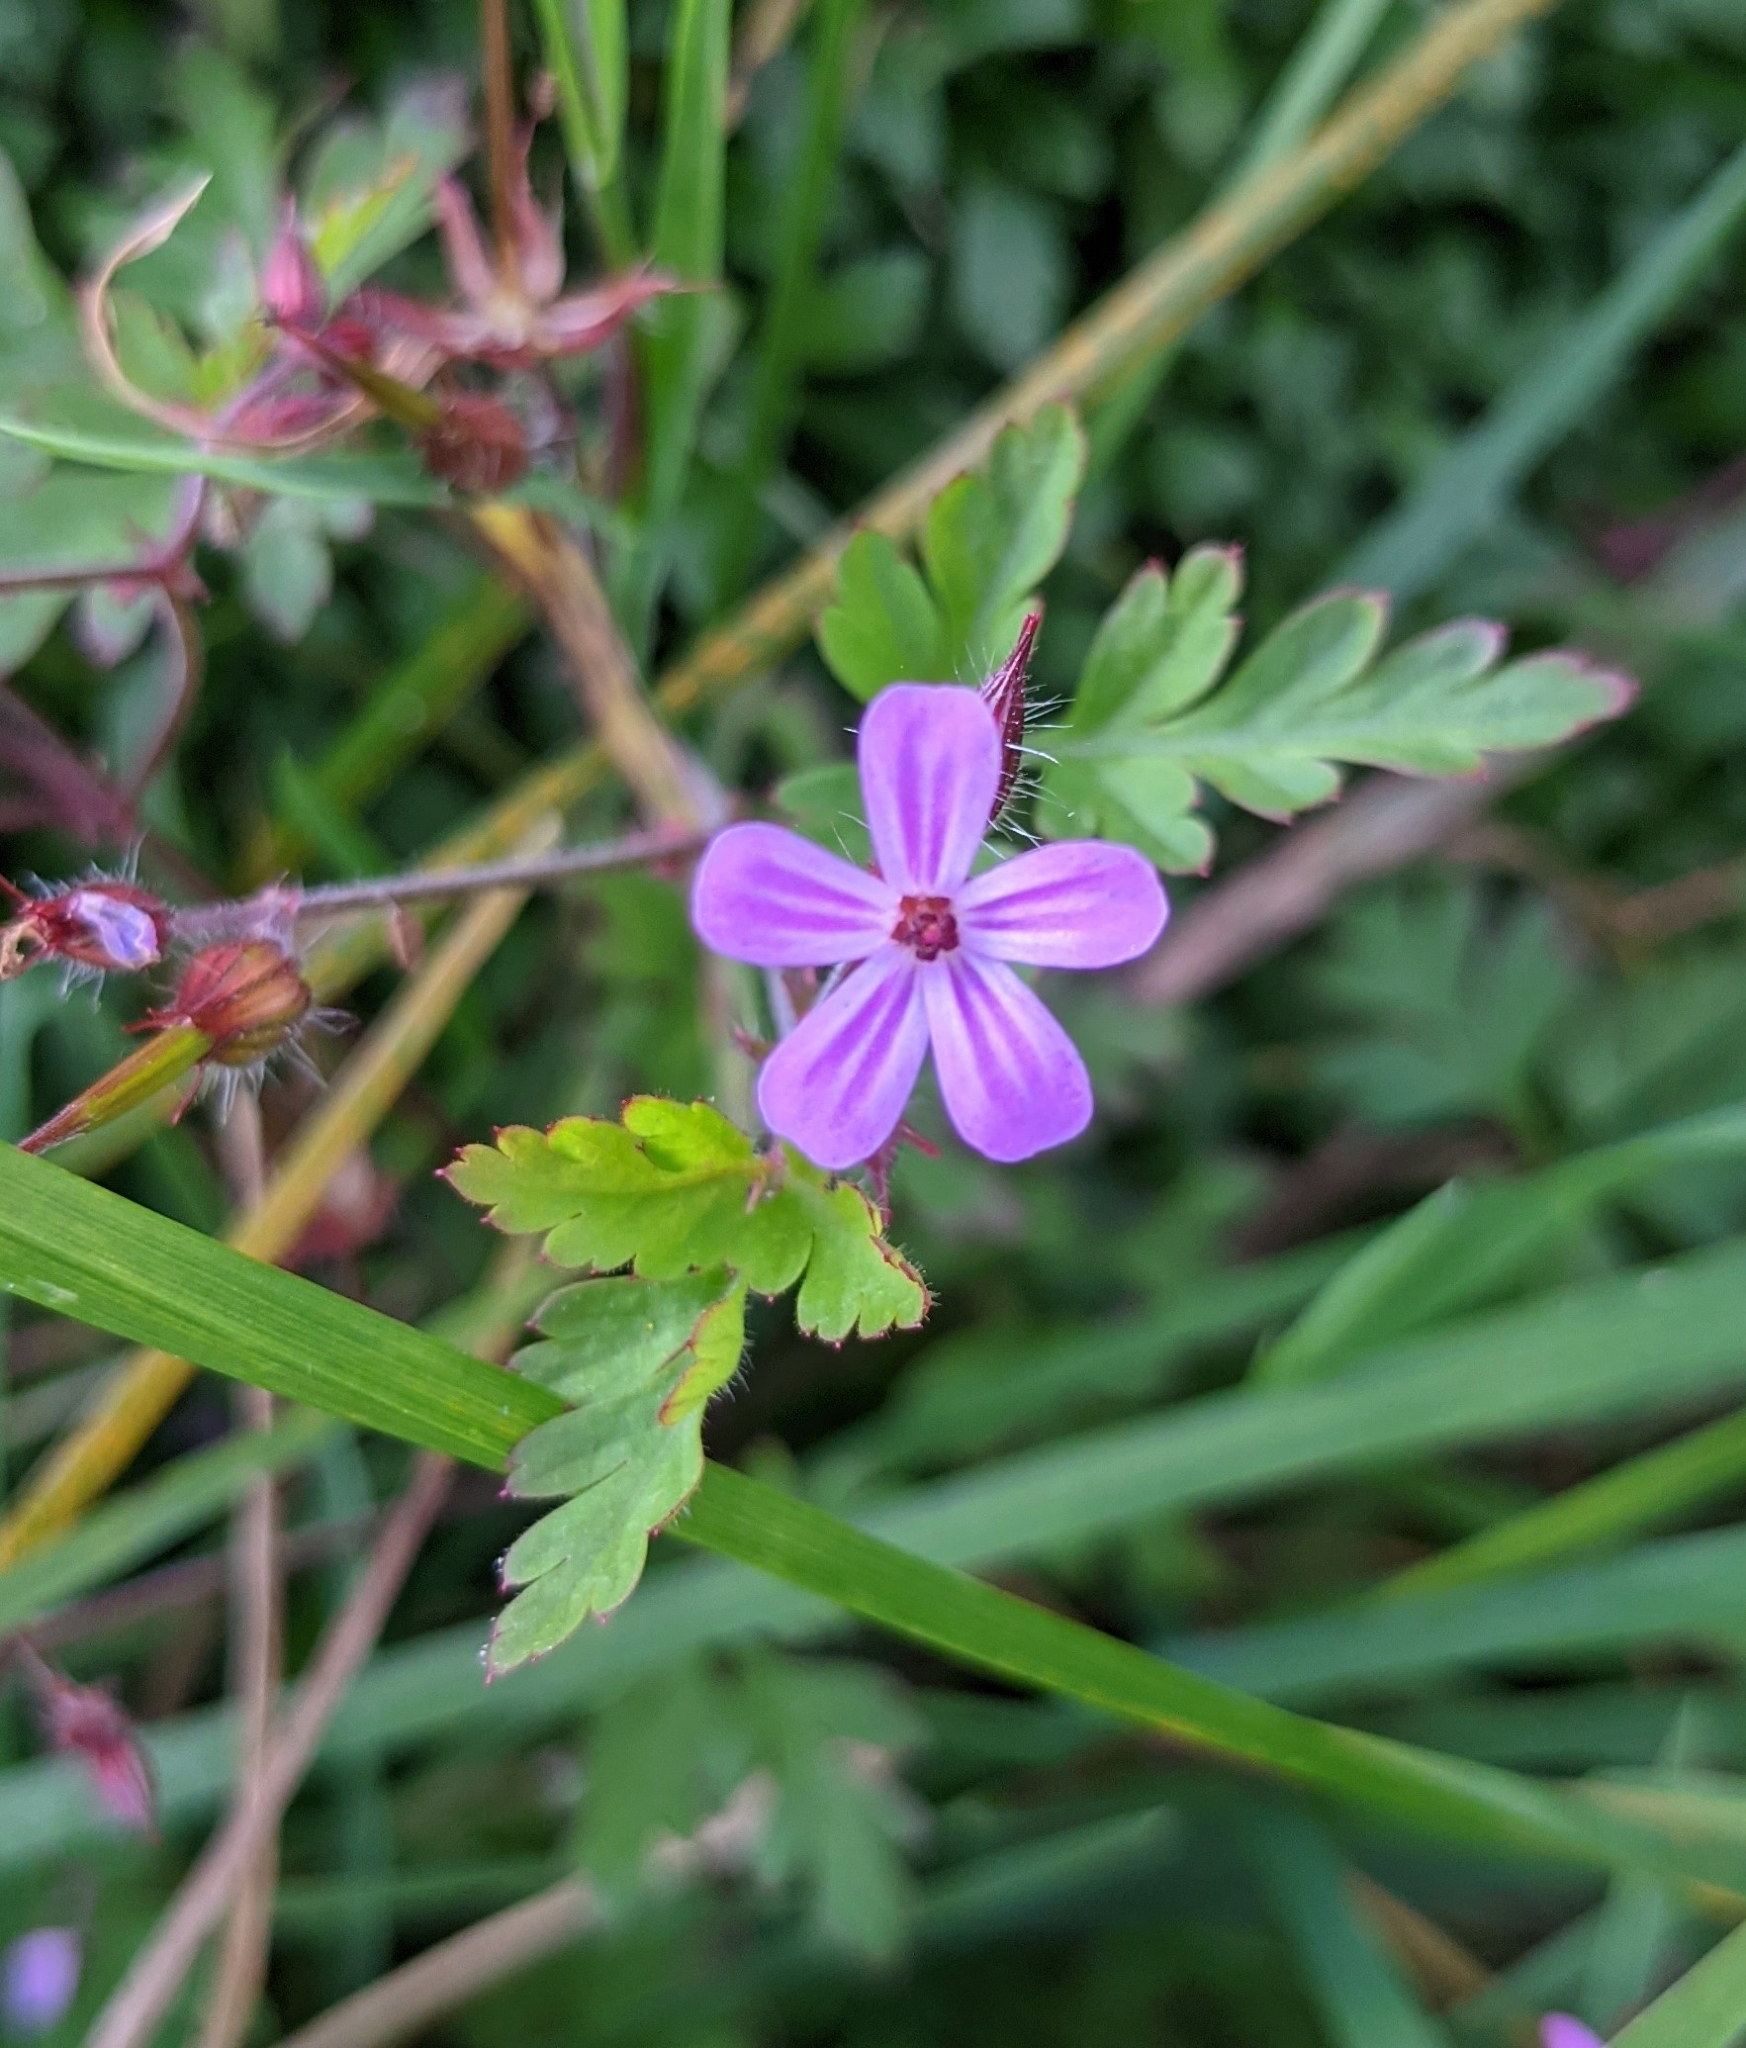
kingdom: Plantae
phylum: Tracheophyta
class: Magnoliopsida
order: Geraniales
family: Geraniaceae
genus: Geranium
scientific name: Geranium robertianum
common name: Herb-robert
